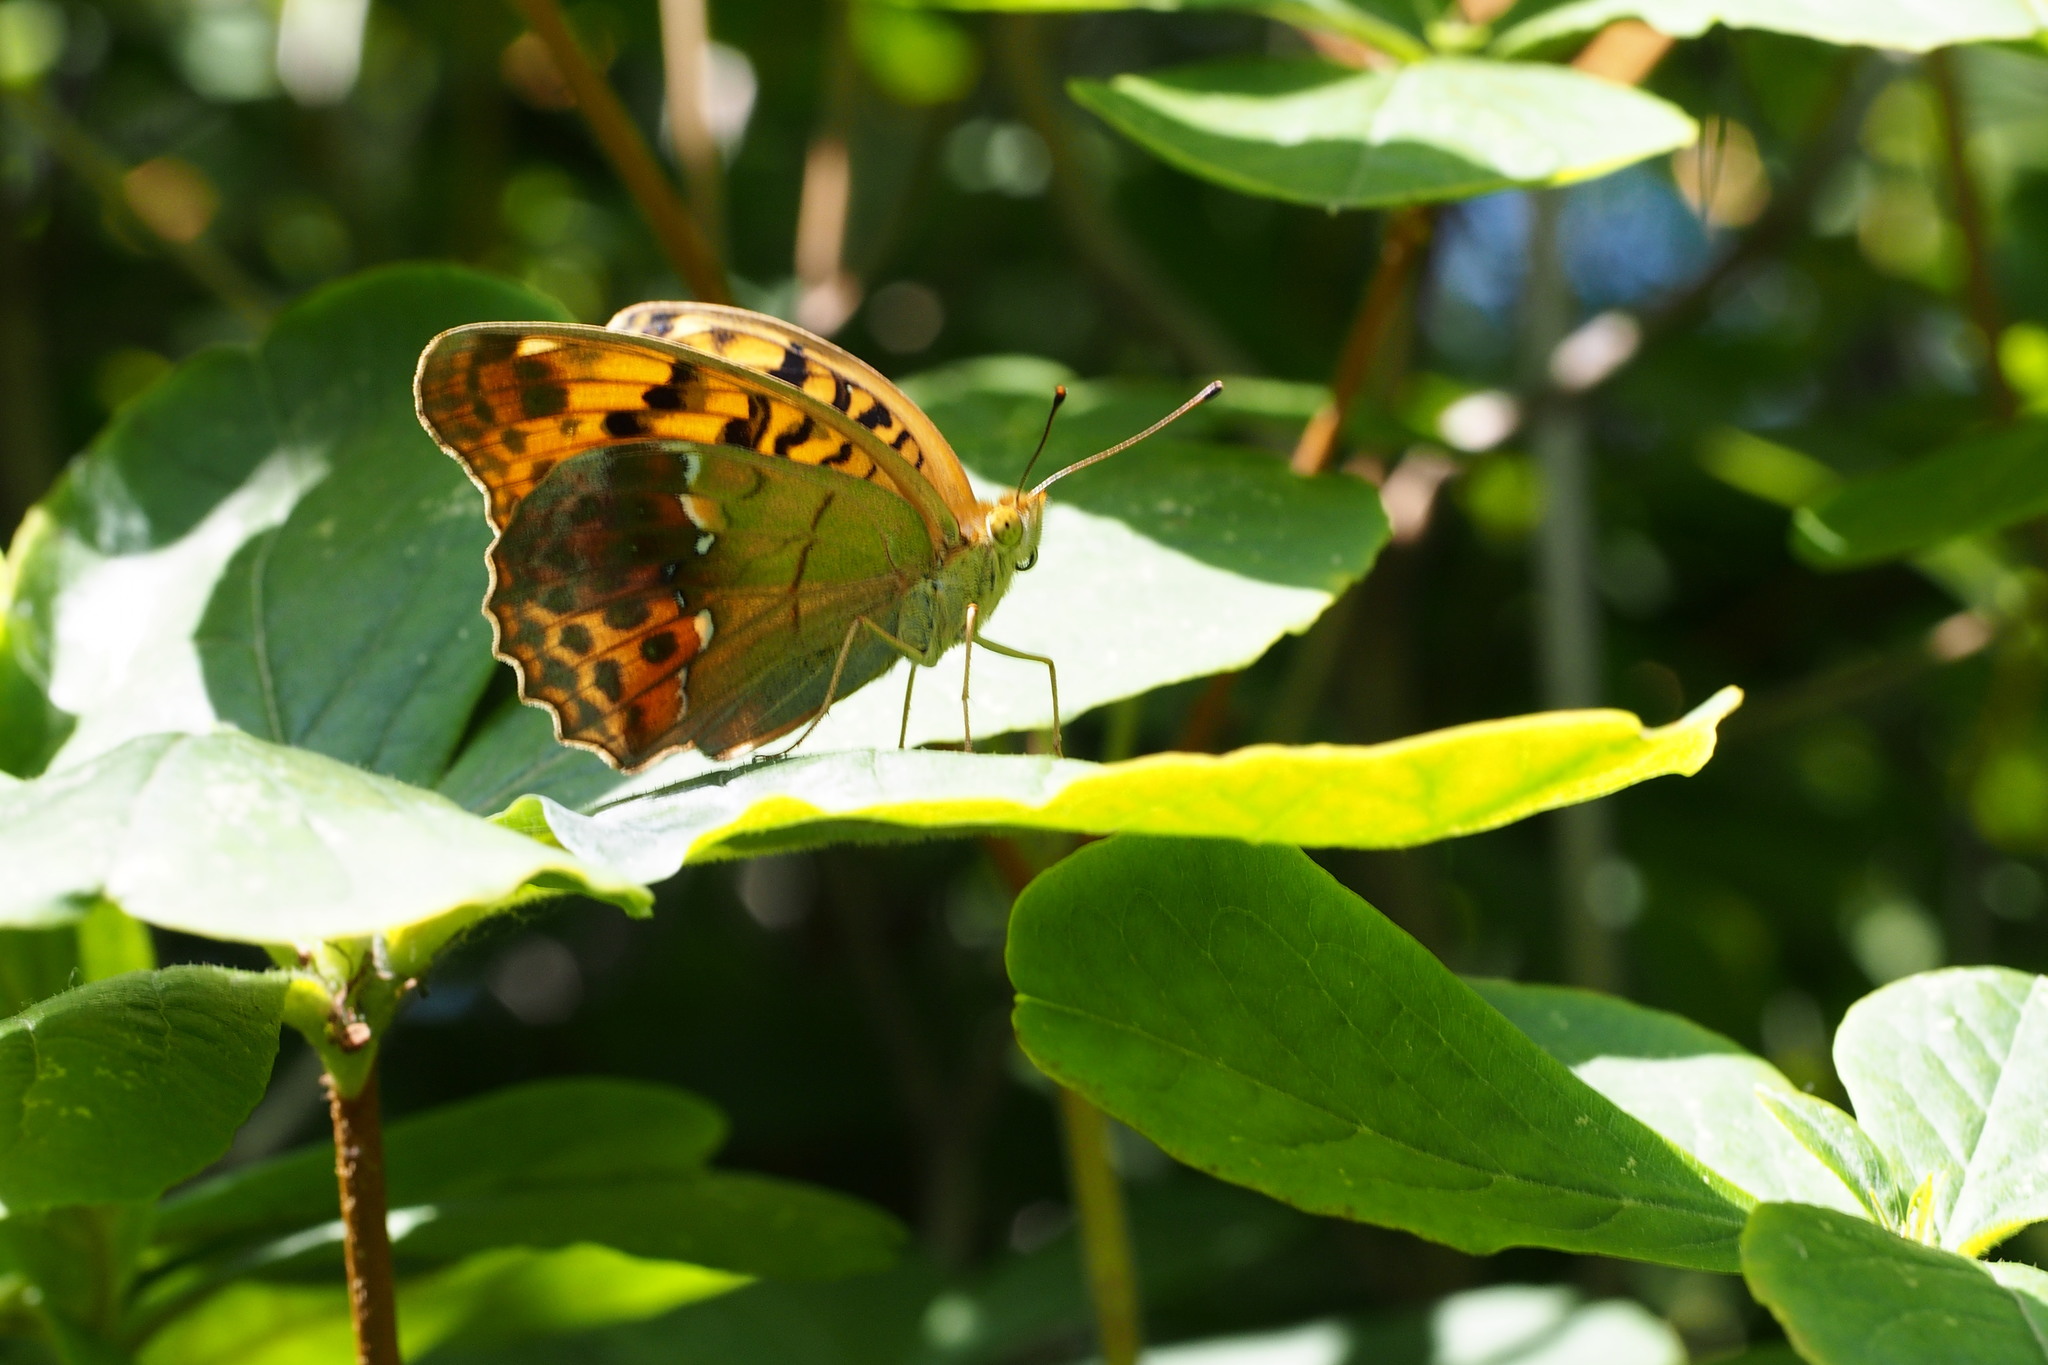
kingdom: Animalia
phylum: Arthropoda
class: Insecta
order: Lepidoptera
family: Nymphalidae
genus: Argyronome
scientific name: Argyronome ruslana
